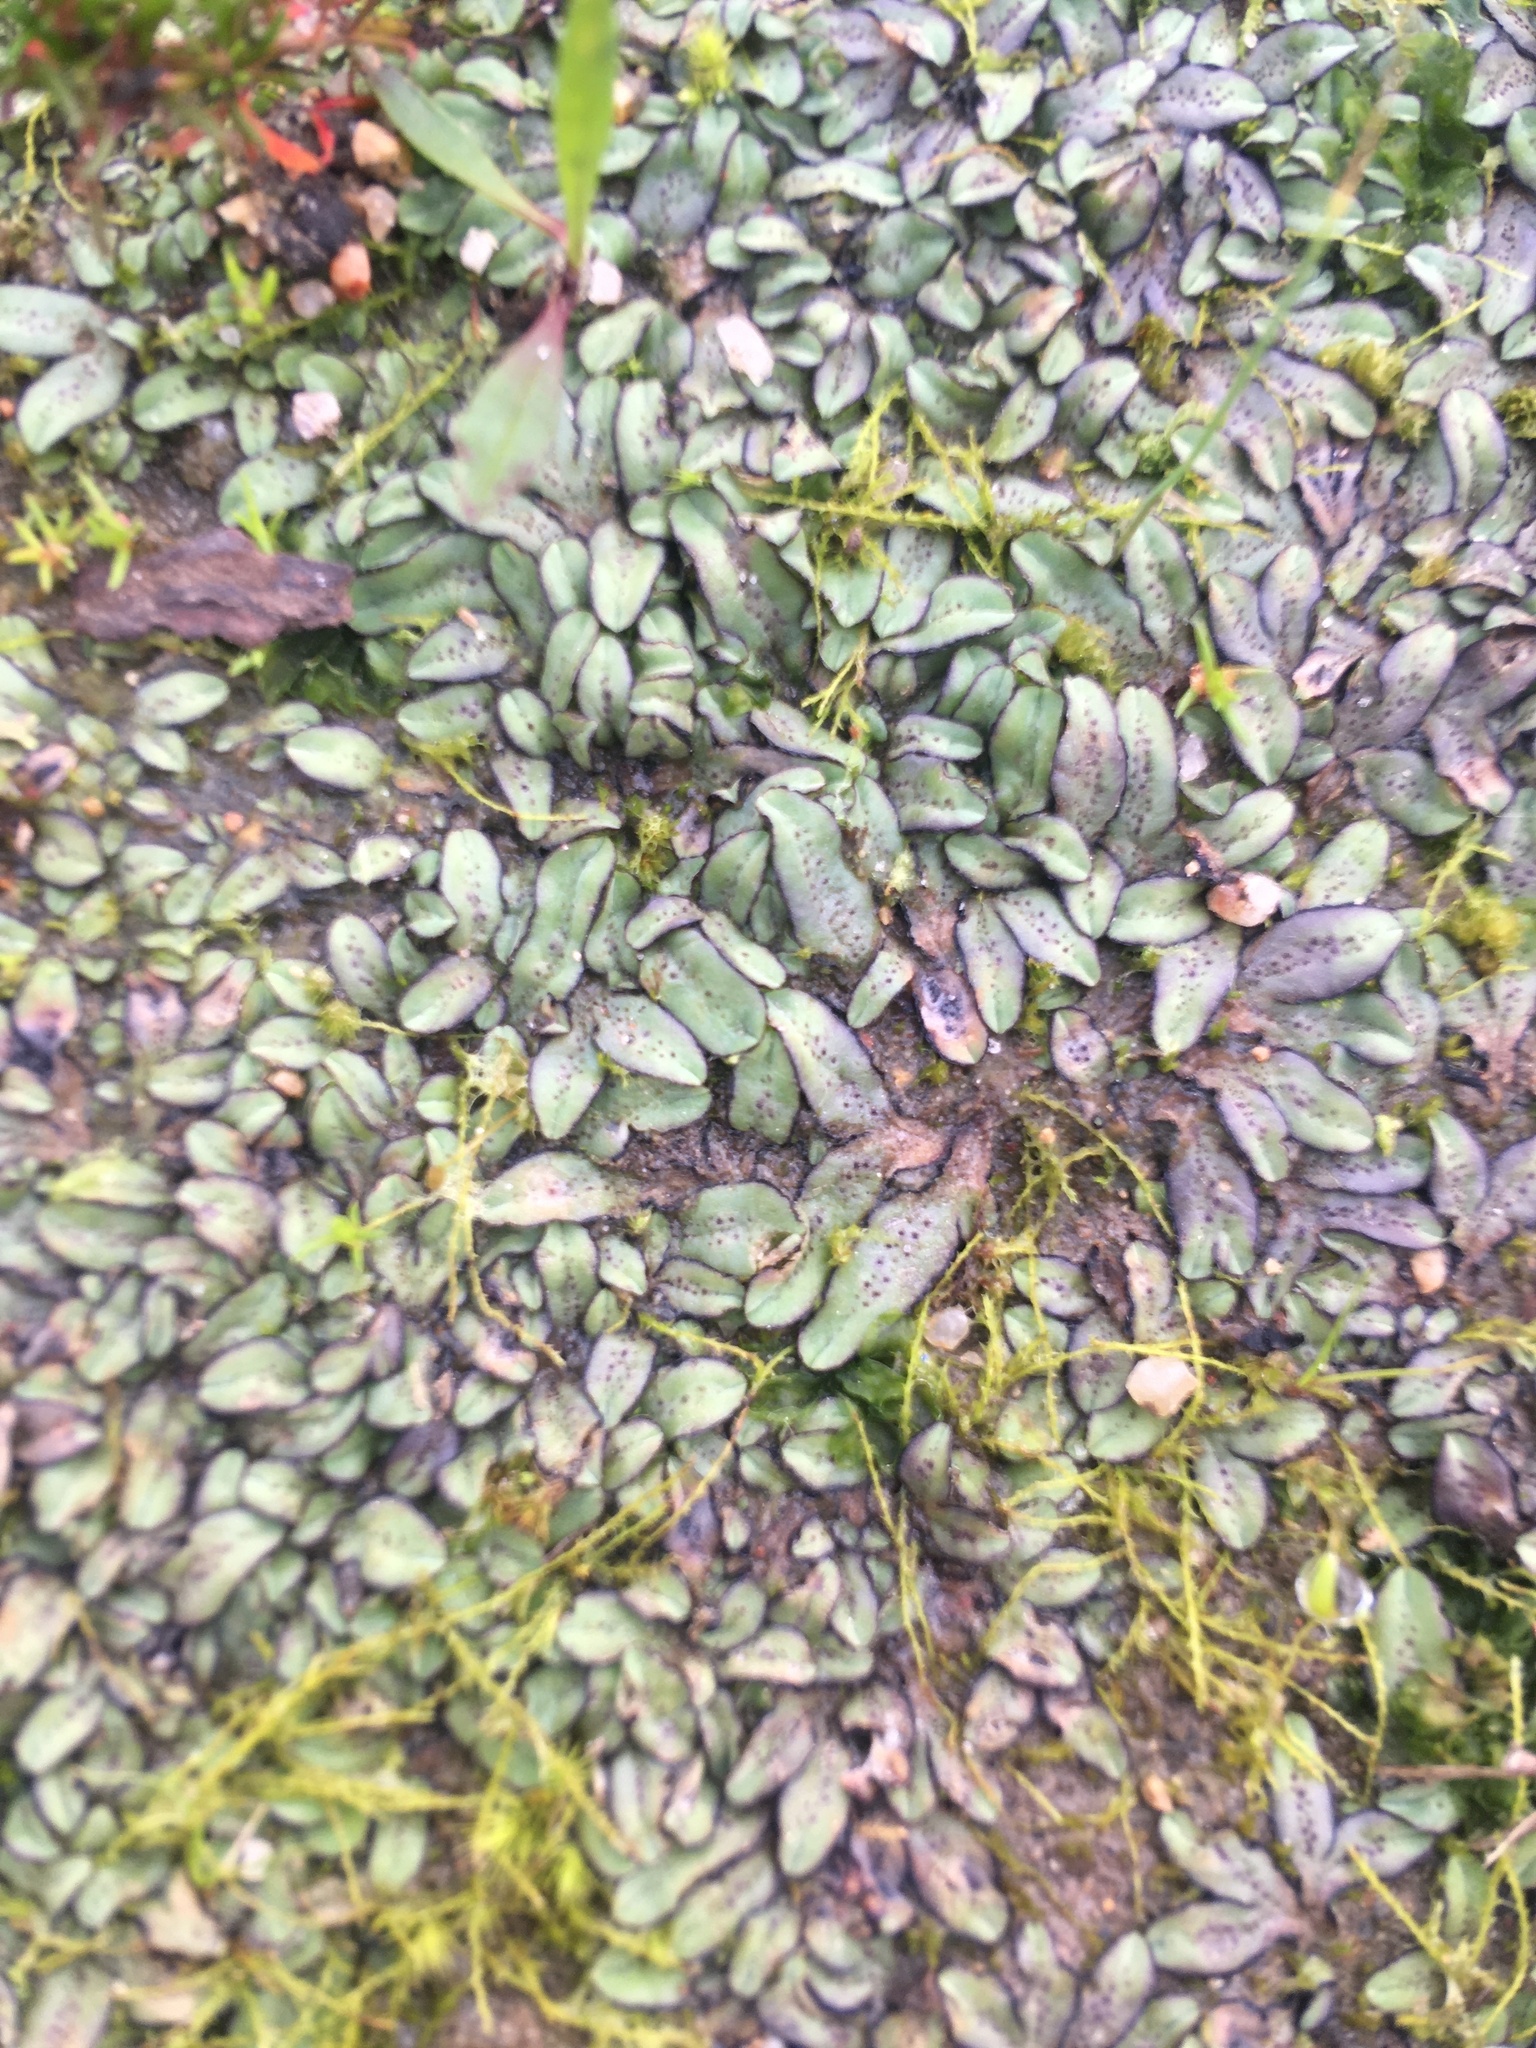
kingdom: Plantae
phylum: Bryophyta
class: Bryopsida
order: Dicranales
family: Ditrichaceae
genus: Pleuridium
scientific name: Pleuridium ecklonii
